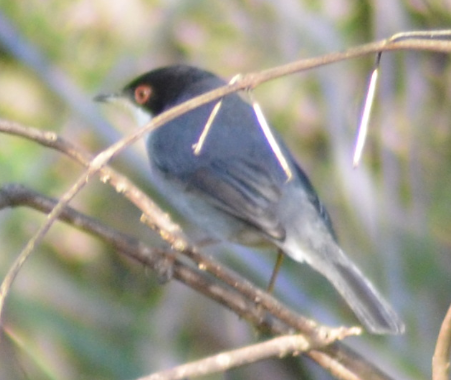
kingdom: Animalia
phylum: Chordata
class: Aves
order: Passeriformes
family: Sylviidae
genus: Curruca
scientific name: Curruca melanocephala
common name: Sardinian warbler
